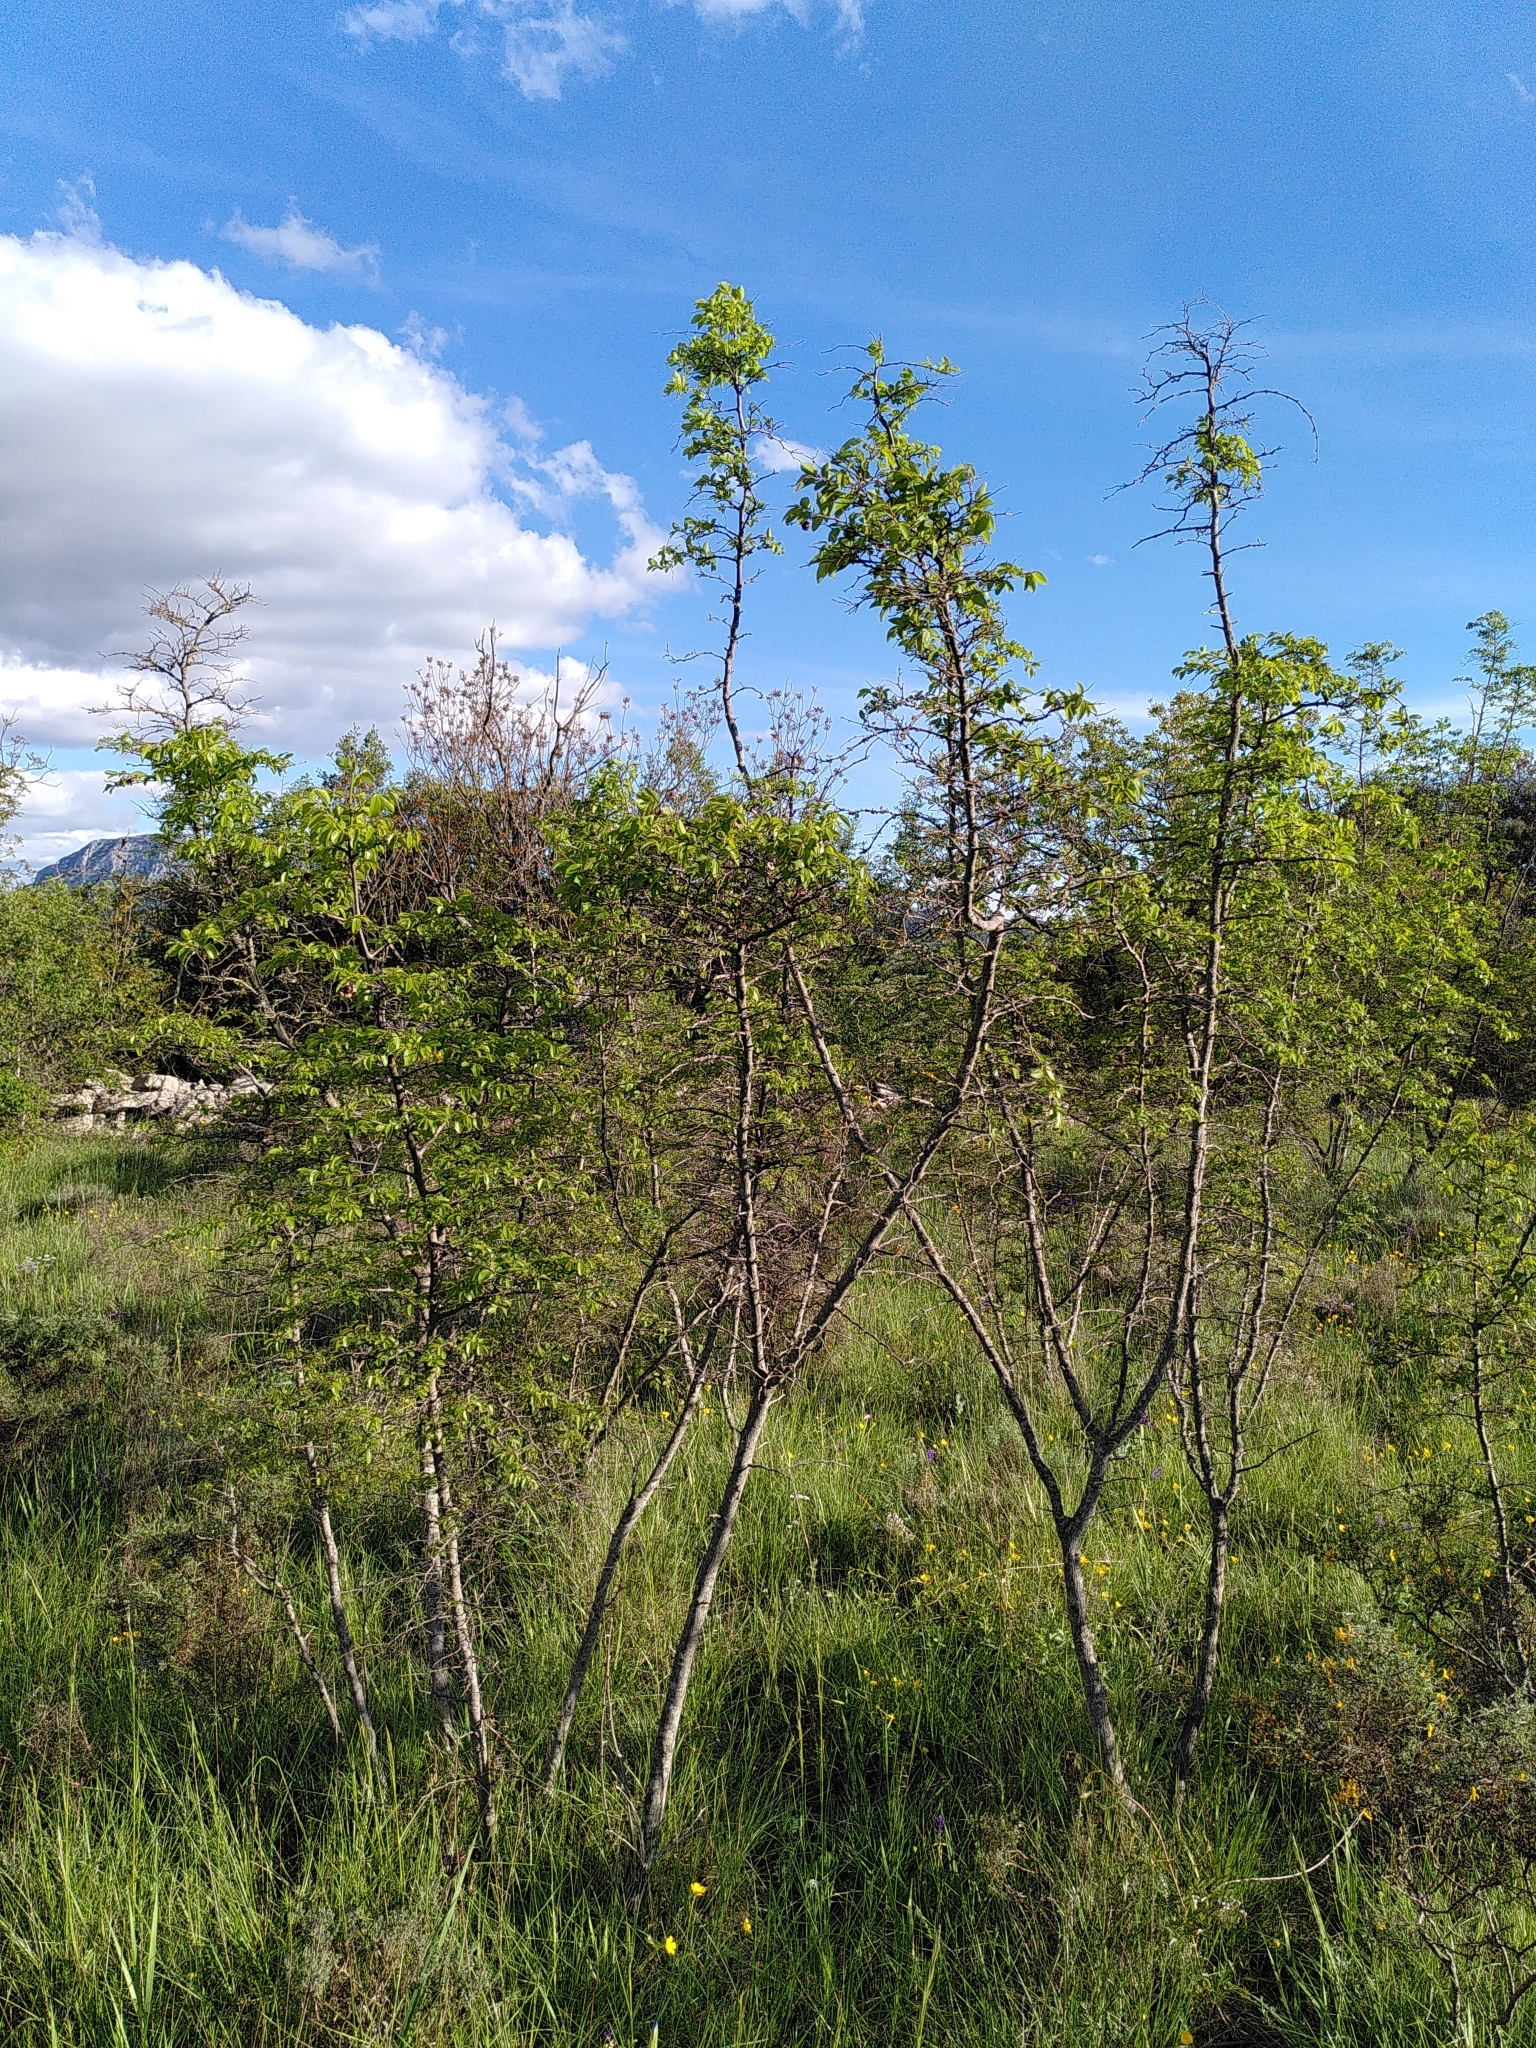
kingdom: Plantae
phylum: Tracheophyta
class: Magnoliopsida
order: Rosales
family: Rhamnaceae
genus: Paliurus
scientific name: Paliurus spina-christi
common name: Jeruselem thorn
